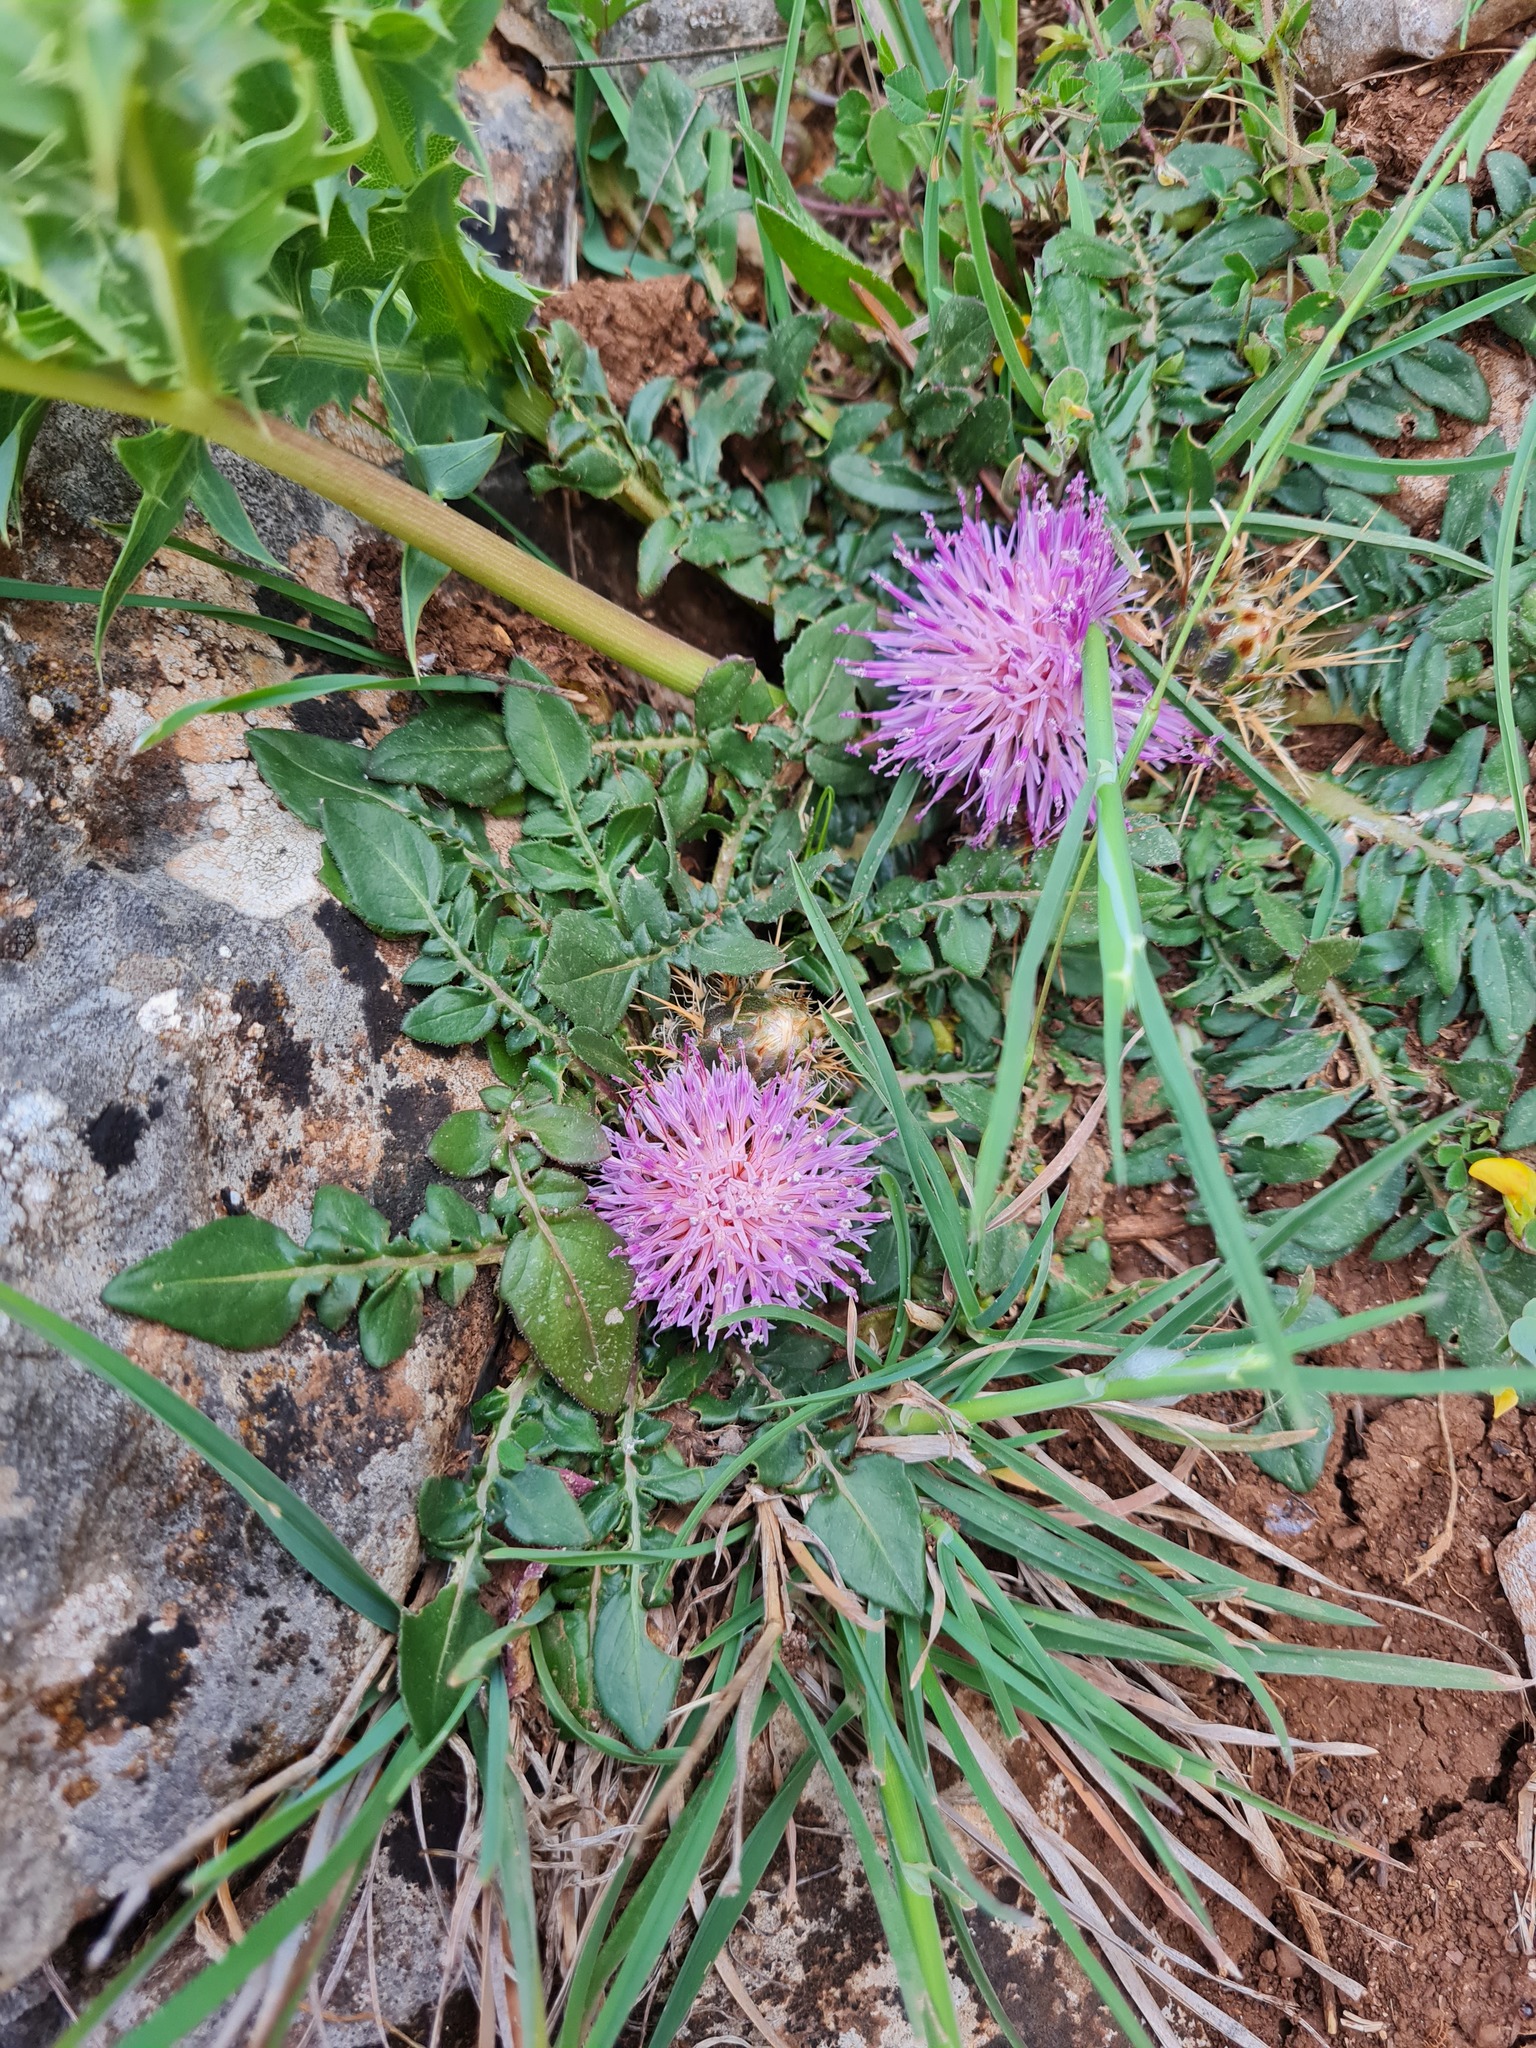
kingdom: Plantae
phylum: Tracheophyta
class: Magnoliopsida
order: Asterales
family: Asteraceae
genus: Cirsium
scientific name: Cirsium acaulon
